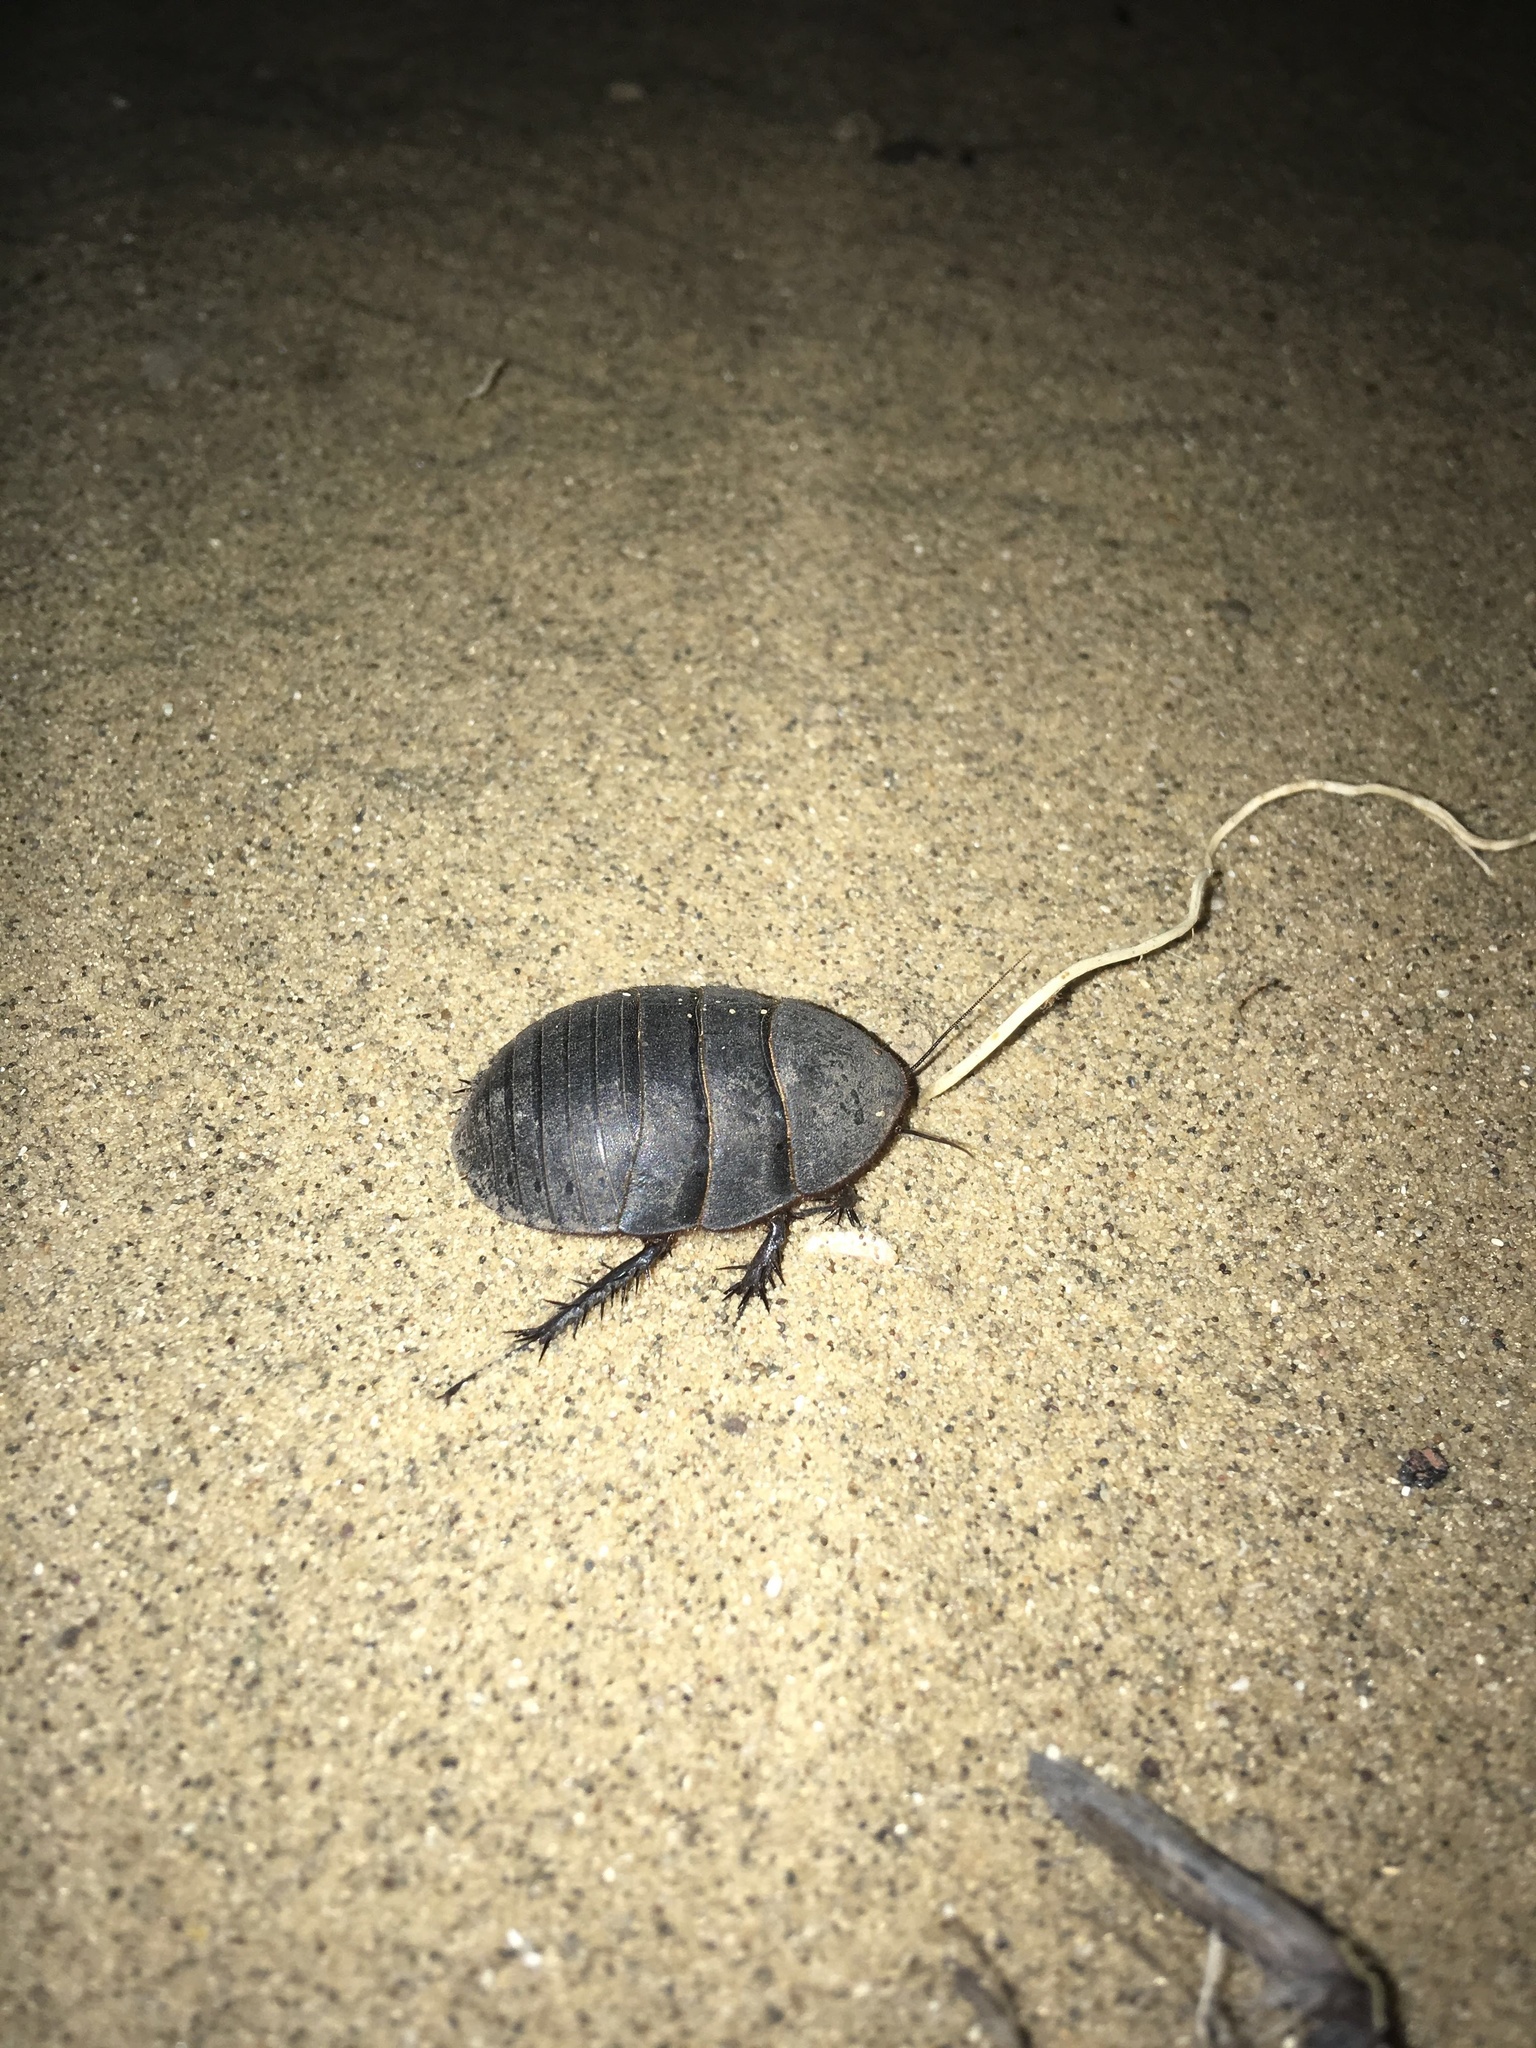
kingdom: Animalia
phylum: Arthropoda
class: Insecta
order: Blattodea
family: Corydiidae
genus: Polyphaga
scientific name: Polyphaga aegyptiaca
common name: Egyptian cockroach
